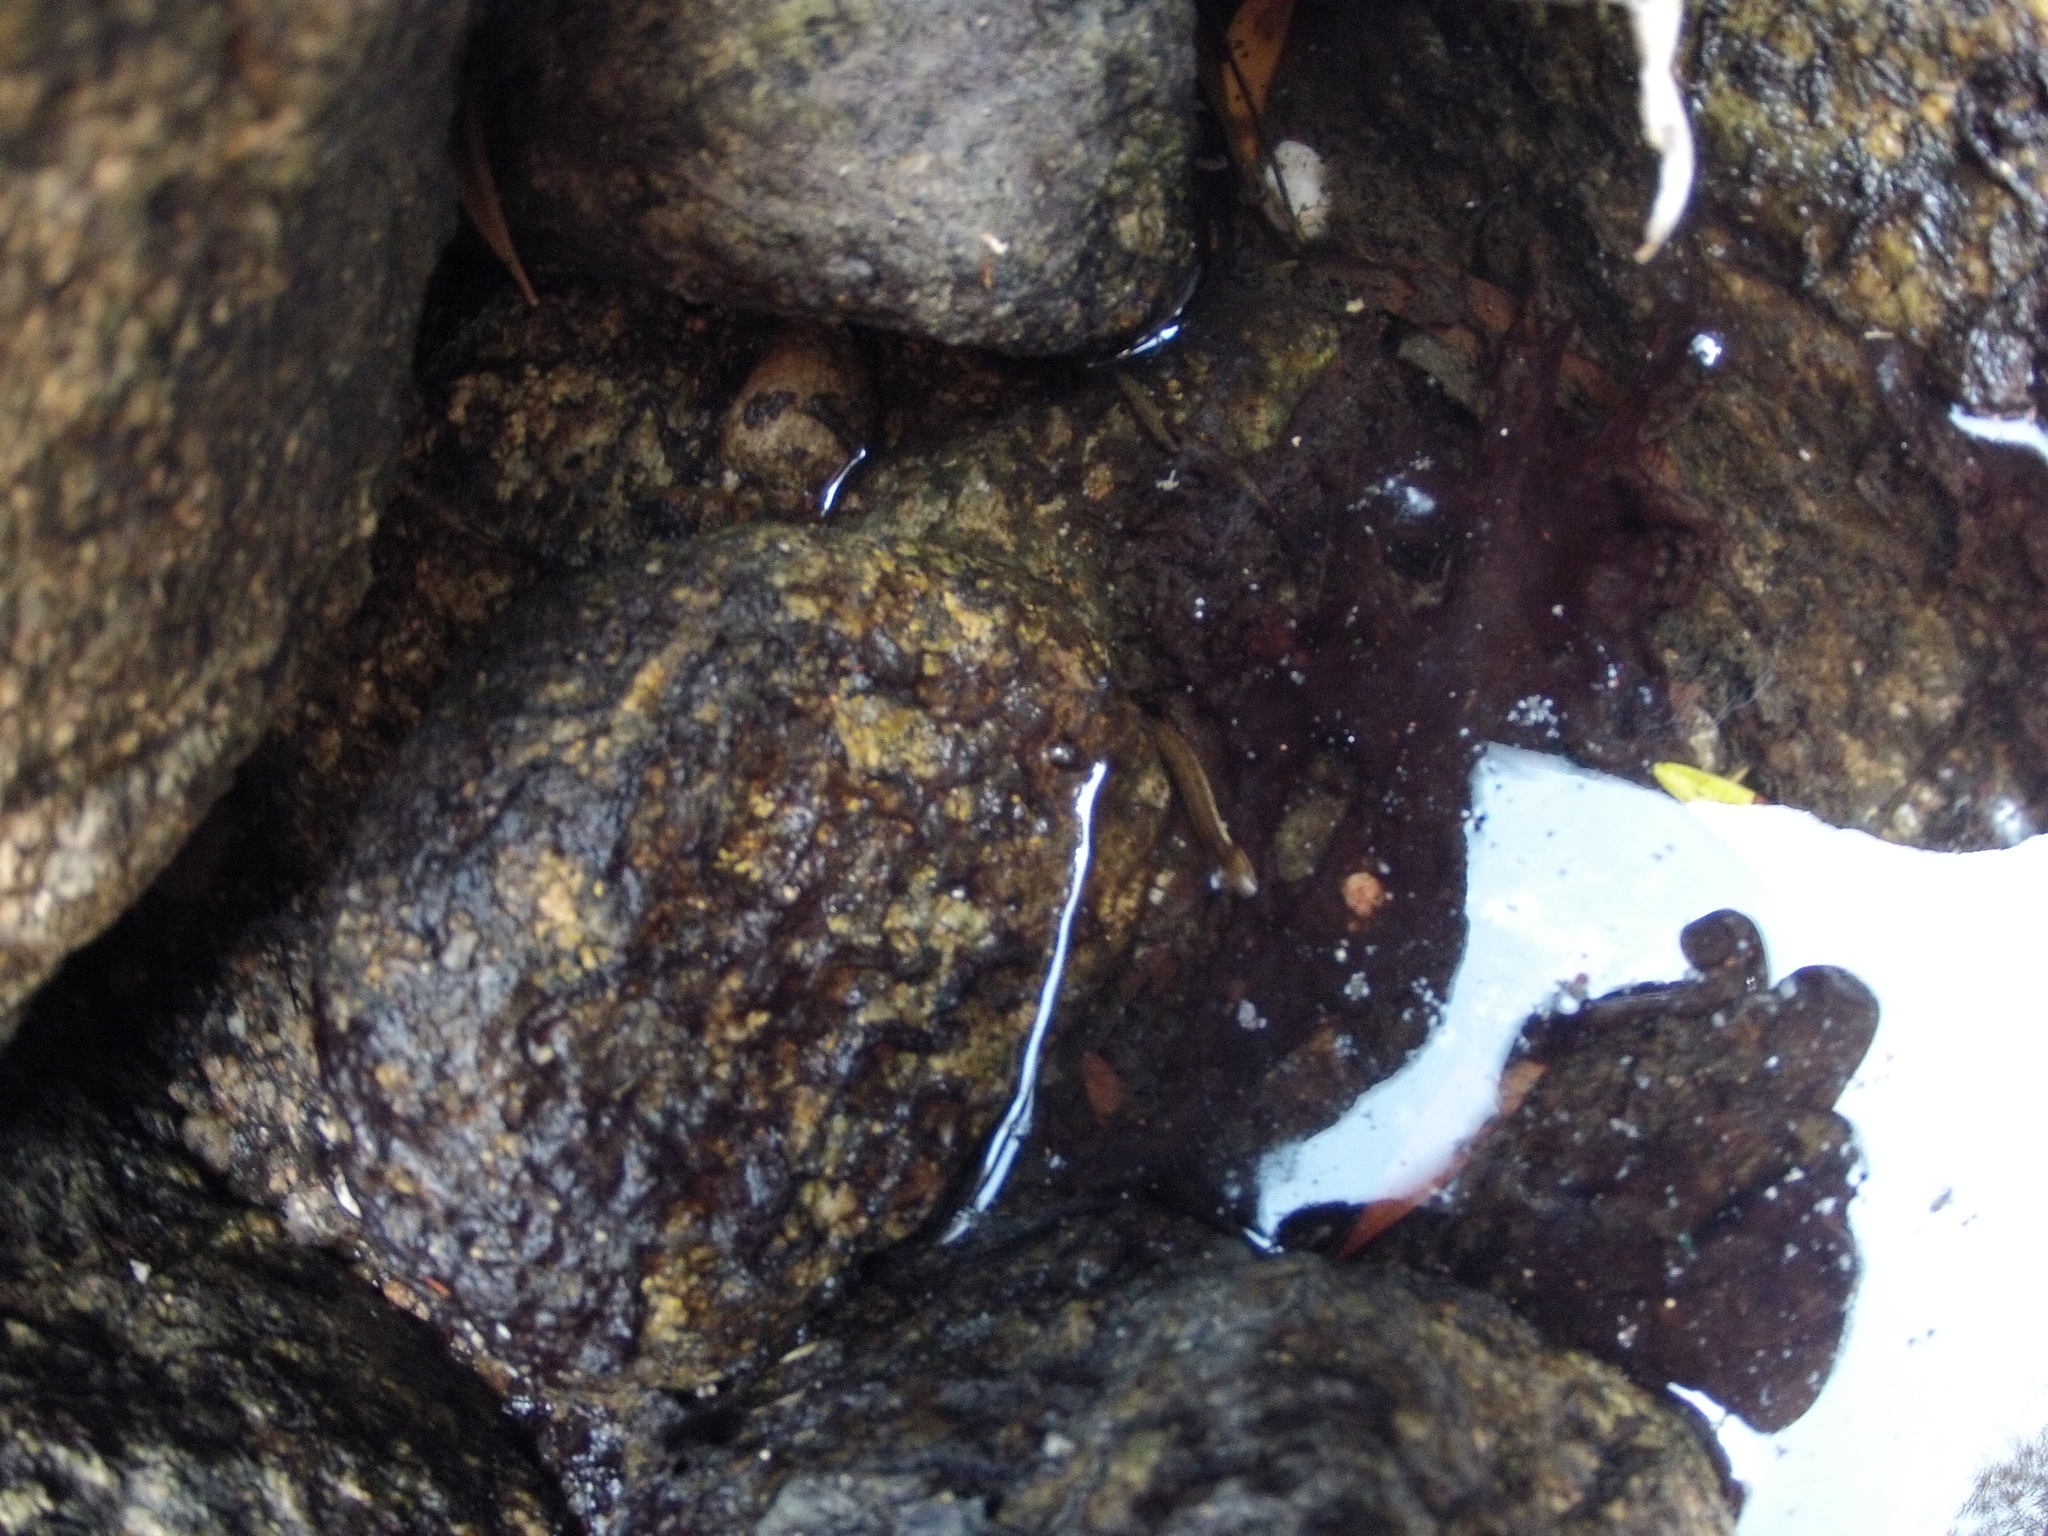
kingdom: Animalia
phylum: Chordata
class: Squamata
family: Colubridae
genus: Natrix
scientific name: Natrix maura
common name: Viperine water snake
